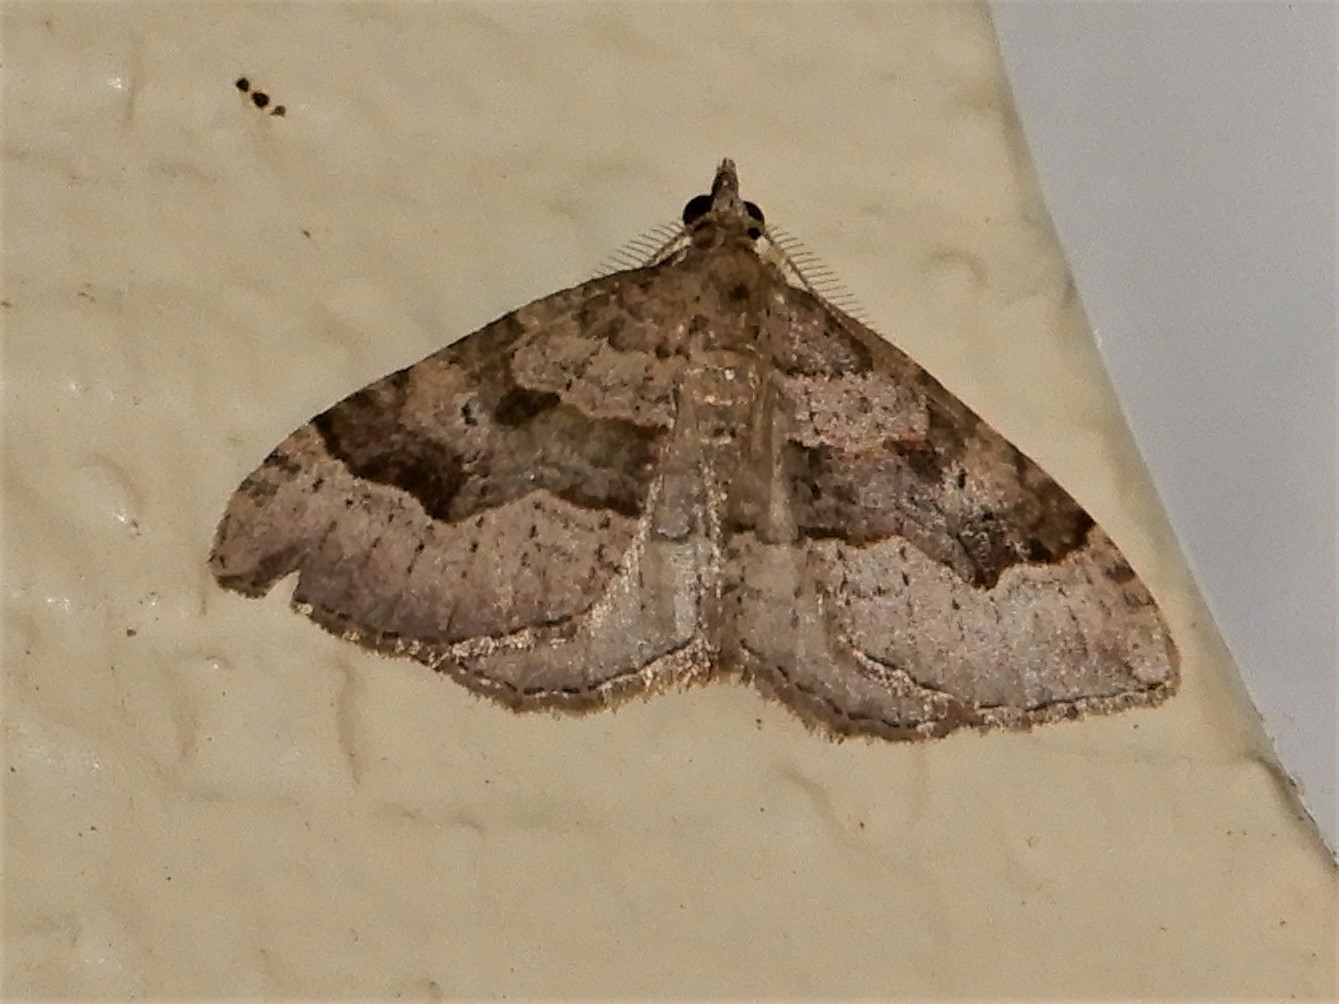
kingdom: Animalia
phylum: Arthropoda
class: Insecta
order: Lepidoptera
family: Geometridae
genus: Epyaxa
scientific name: Epyaxa rosearia
